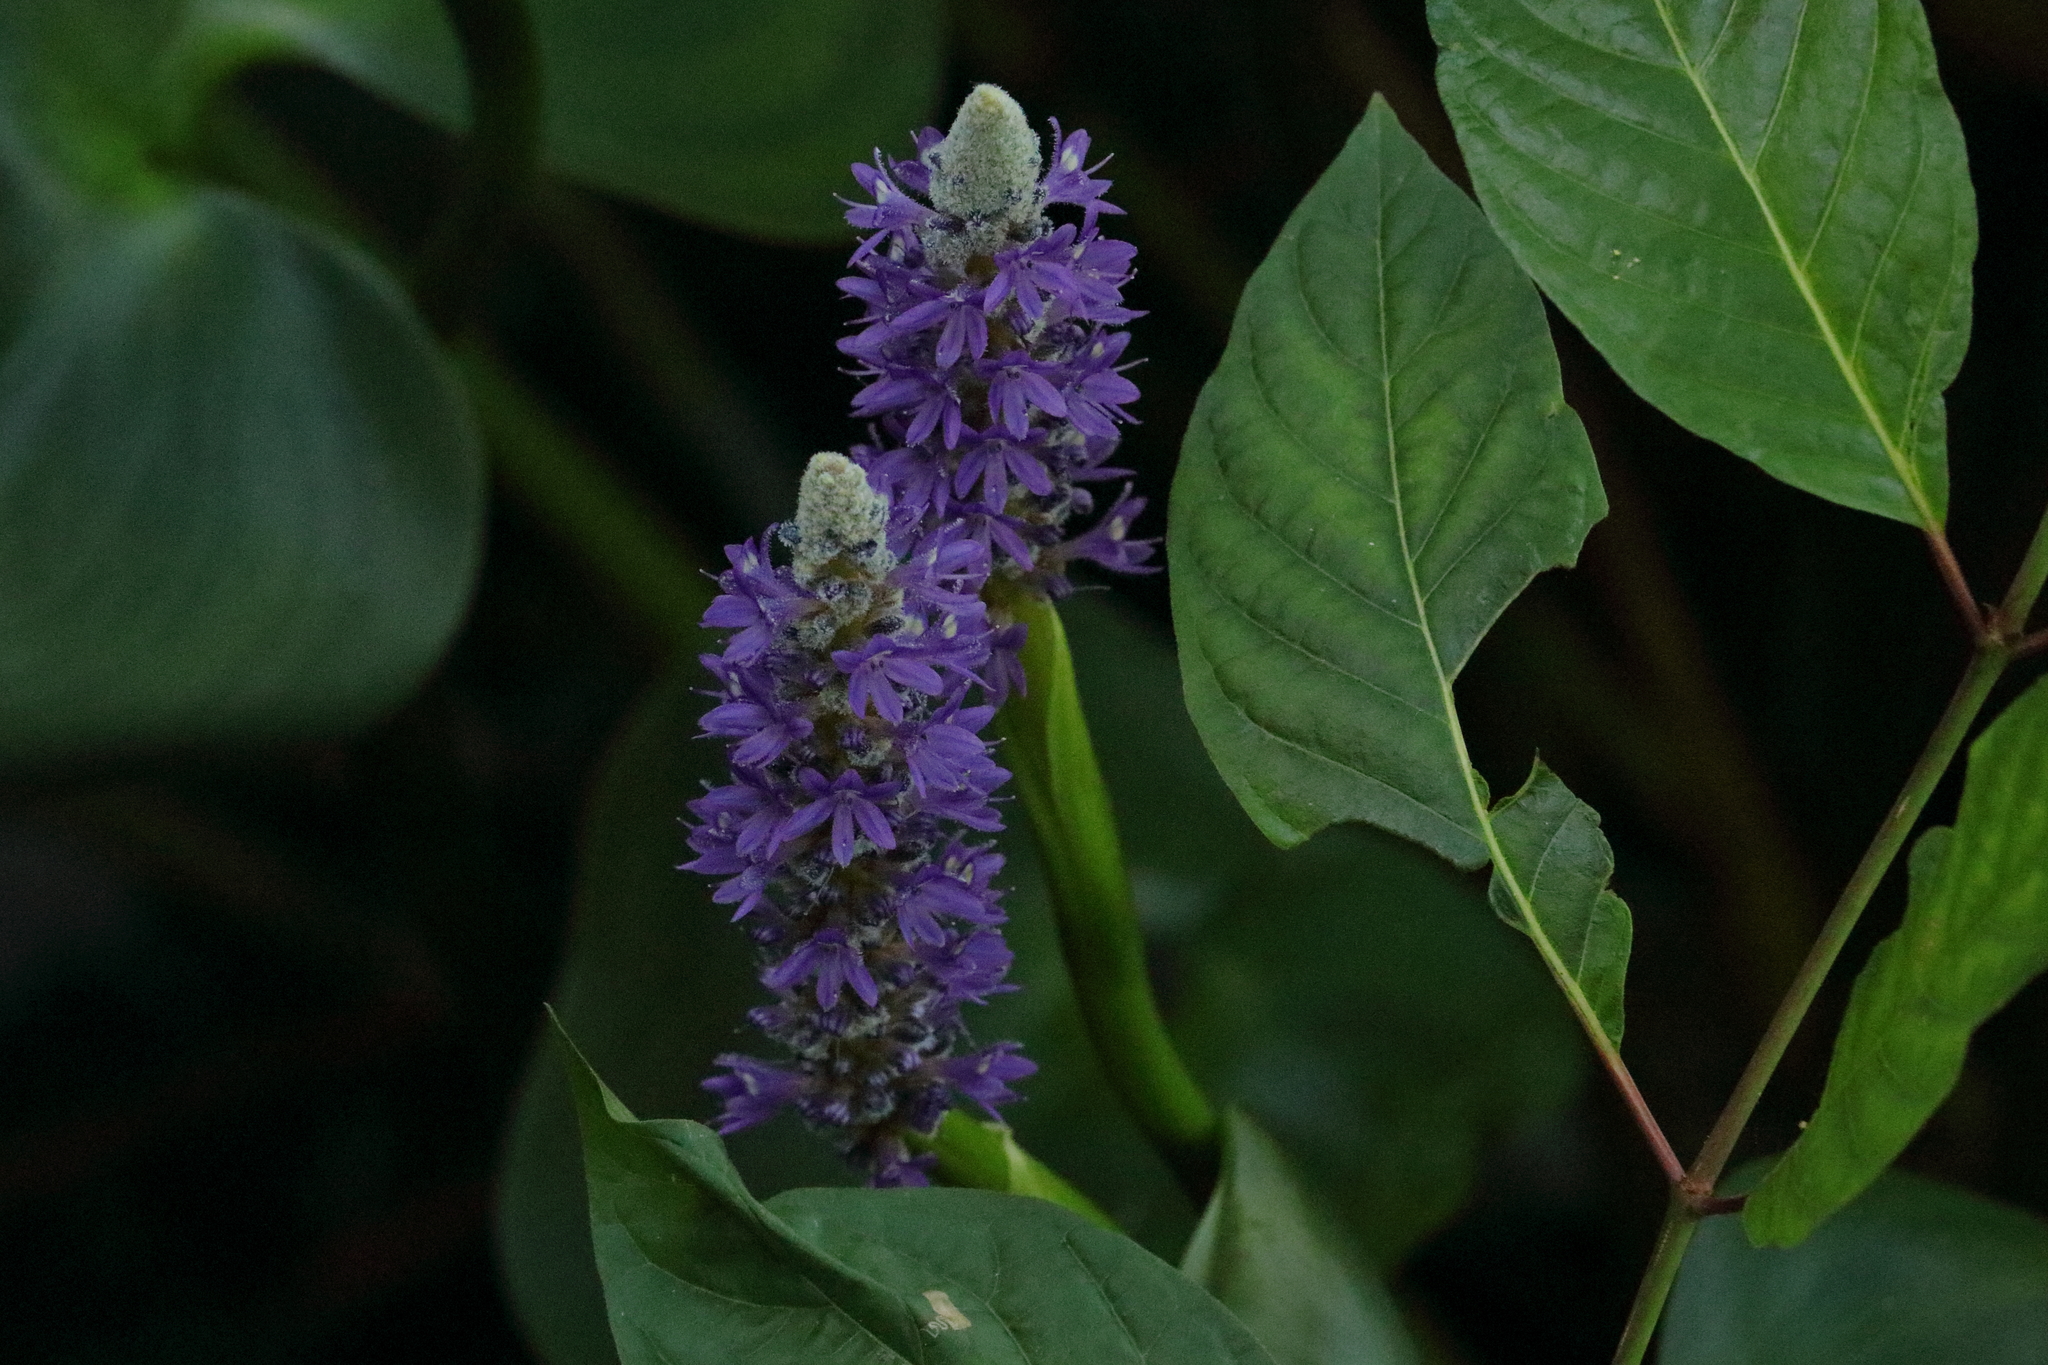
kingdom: Plantae
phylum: Tracheophyta
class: Liliopsida
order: Commelinales
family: Pontederiaceae
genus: Pontederia
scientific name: Pontederia cordata
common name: Pickerelweed
